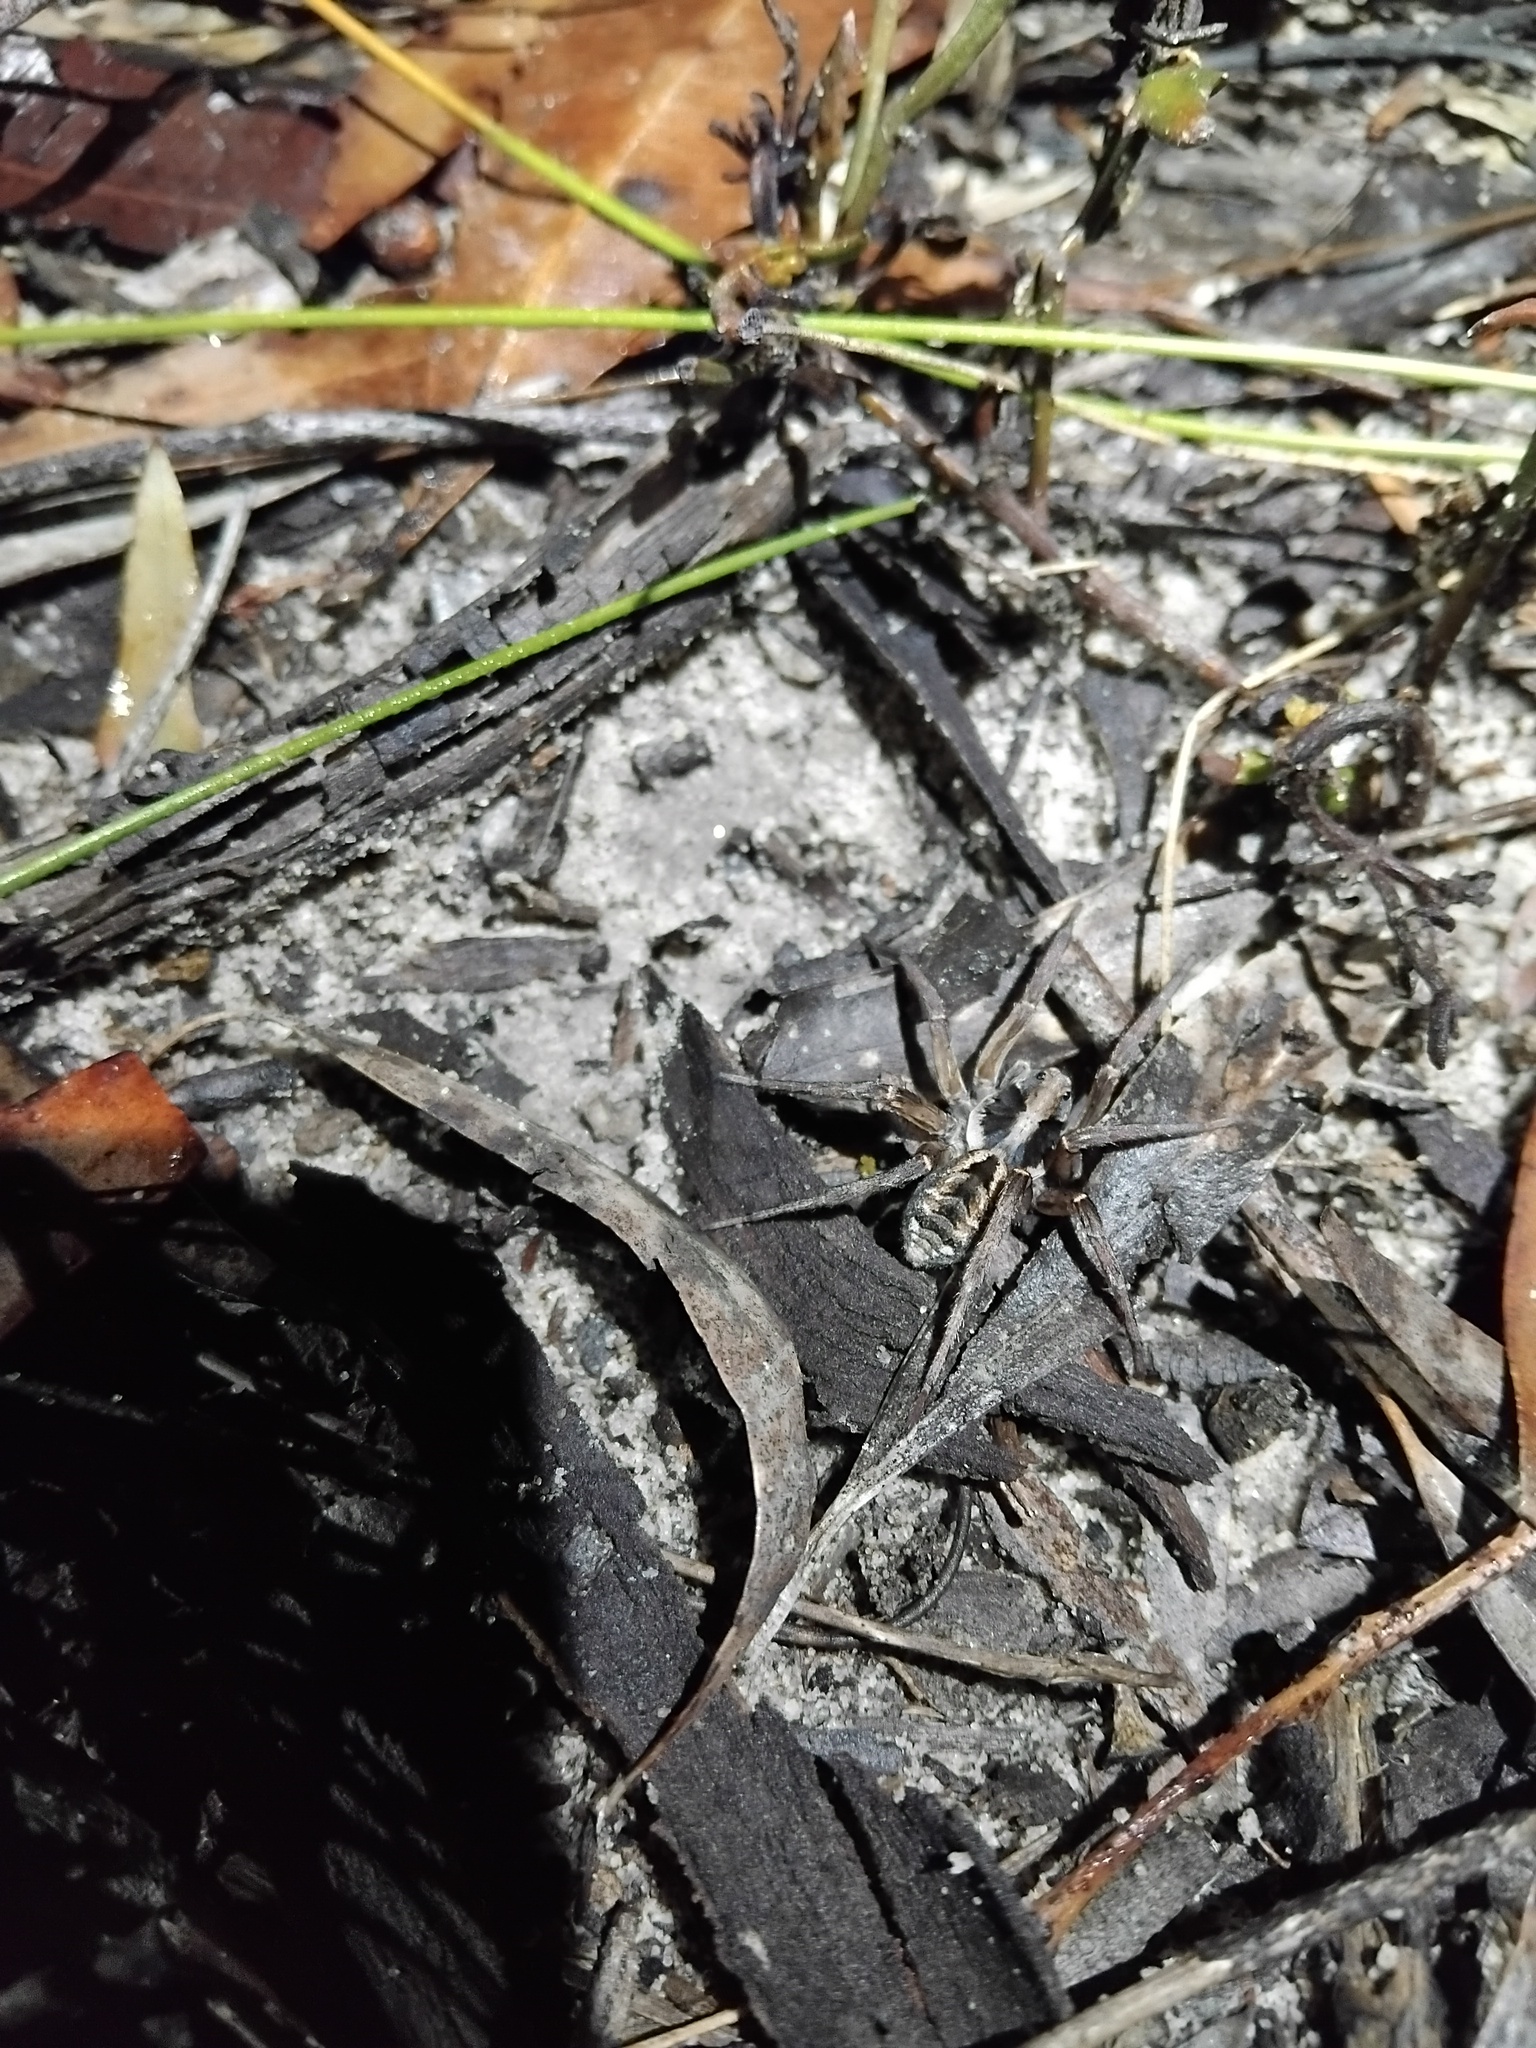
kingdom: Animalia
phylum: Arthropoda
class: Arachnida
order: Araneae
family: Lycosidae
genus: Venator
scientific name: Venator spenceri
